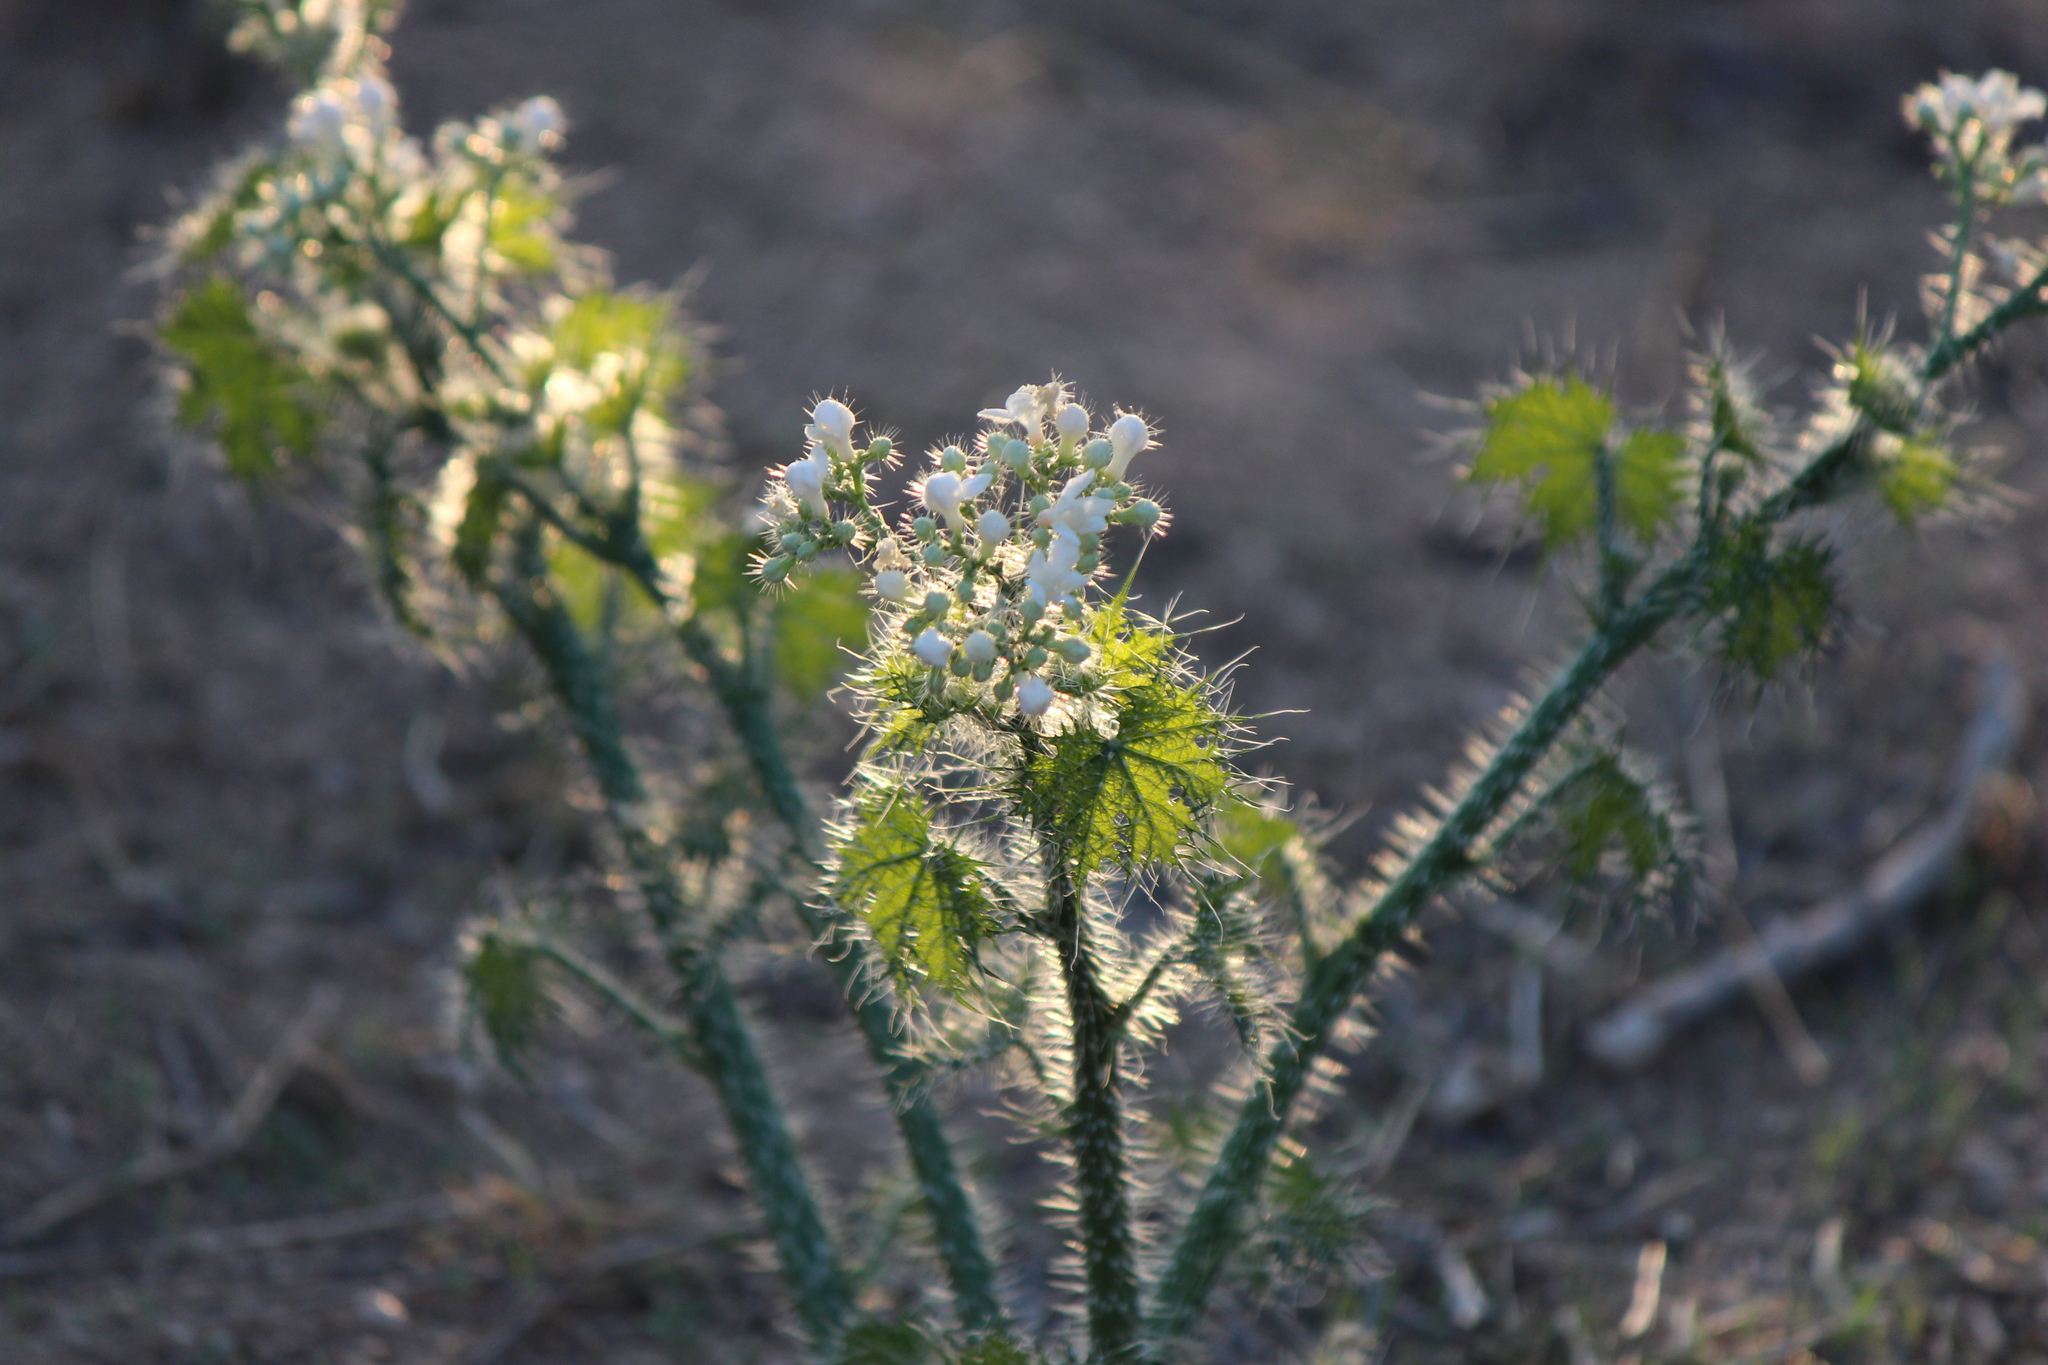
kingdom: Plantae
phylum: Tracheophyta
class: Magnoliopsida
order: Malpighiales
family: Euphorbiaceae
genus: Cnidoscolus
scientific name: Cnidoscolus maculatus
